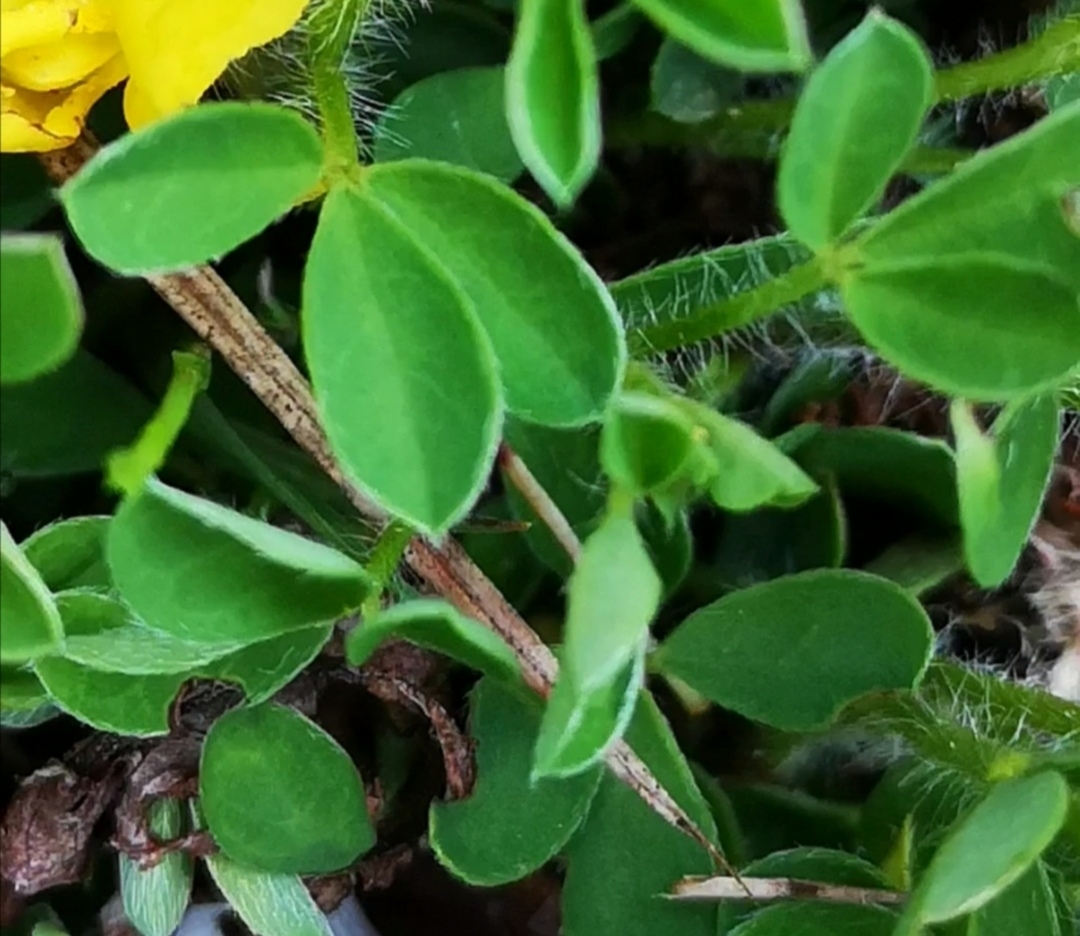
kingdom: Plantae
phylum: Tracheophyta
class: Magnoliopsida
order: Fabales
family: Fabaceae
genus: Chamaecytisus
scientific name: Chamaecytisus hirsutus
